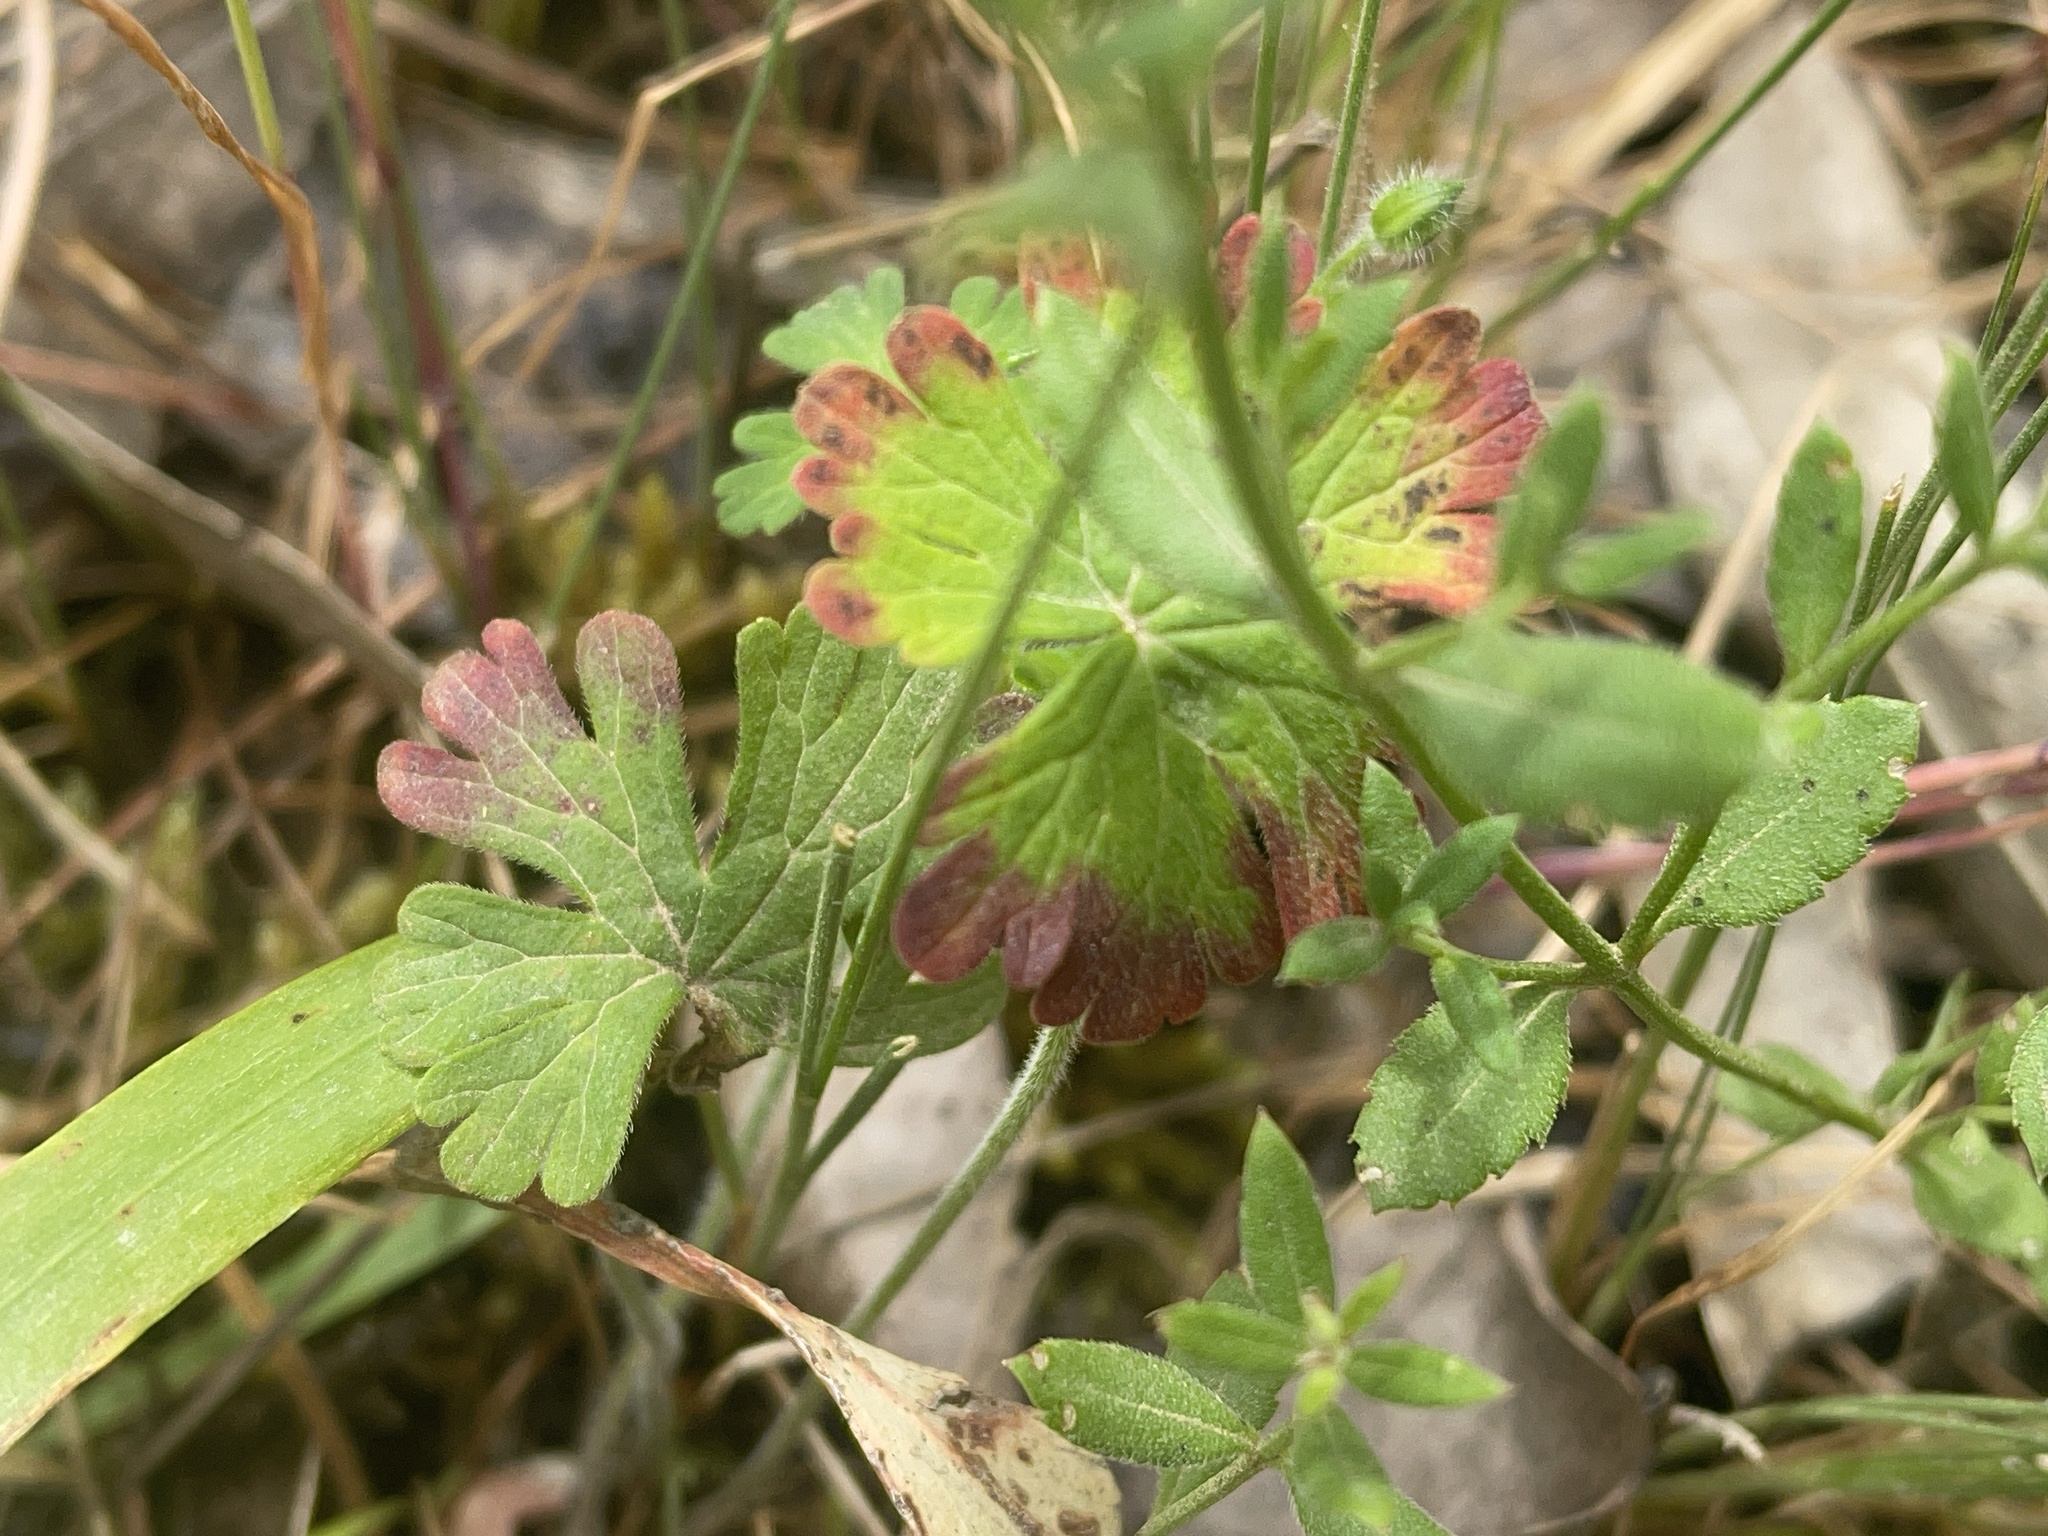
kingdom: Plantae
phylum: Tracheophyta
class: Magnoliopsida
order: Geraniales
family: Geraniaceae
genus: Geranium
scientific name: Geranium potentilloides
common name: Cinquefoil geranium
